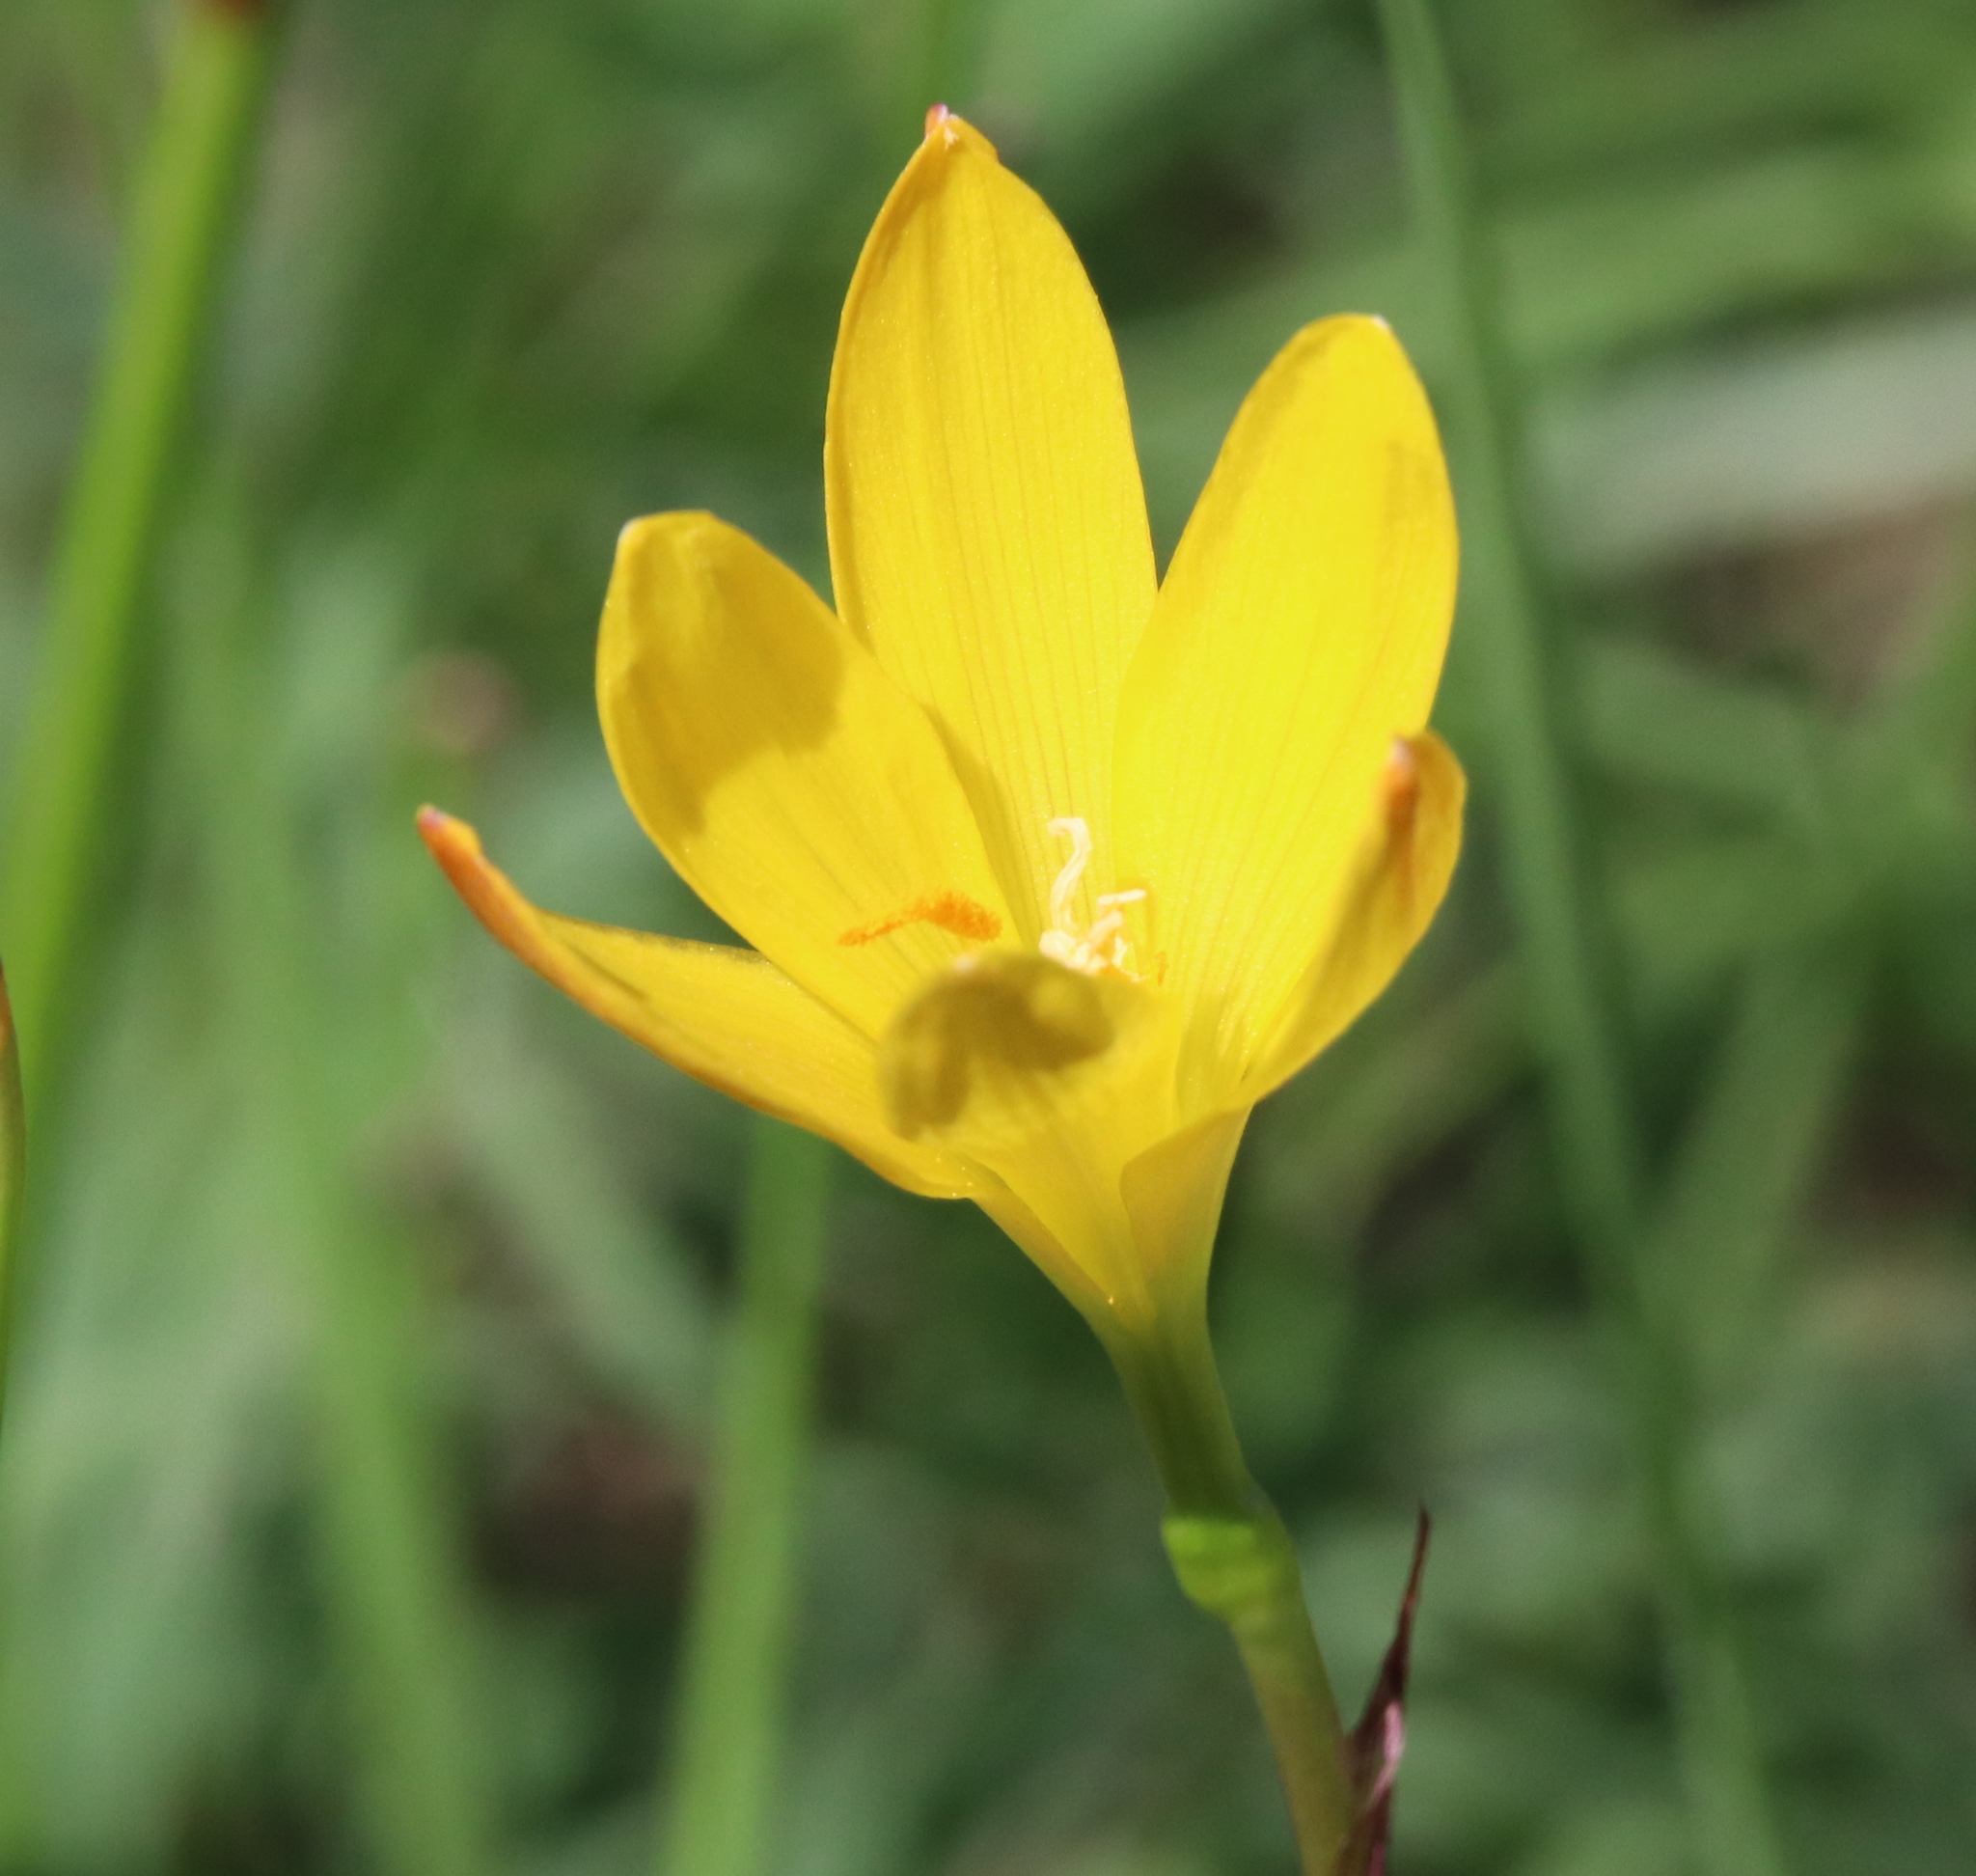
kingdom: Plantae
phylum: Tracheophyta
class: Liliopsida
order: Asparagales
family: Amaryllidaceae
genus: Zephyranthes
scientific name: Zephyranthes citrina
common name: Citron zephyrlily
